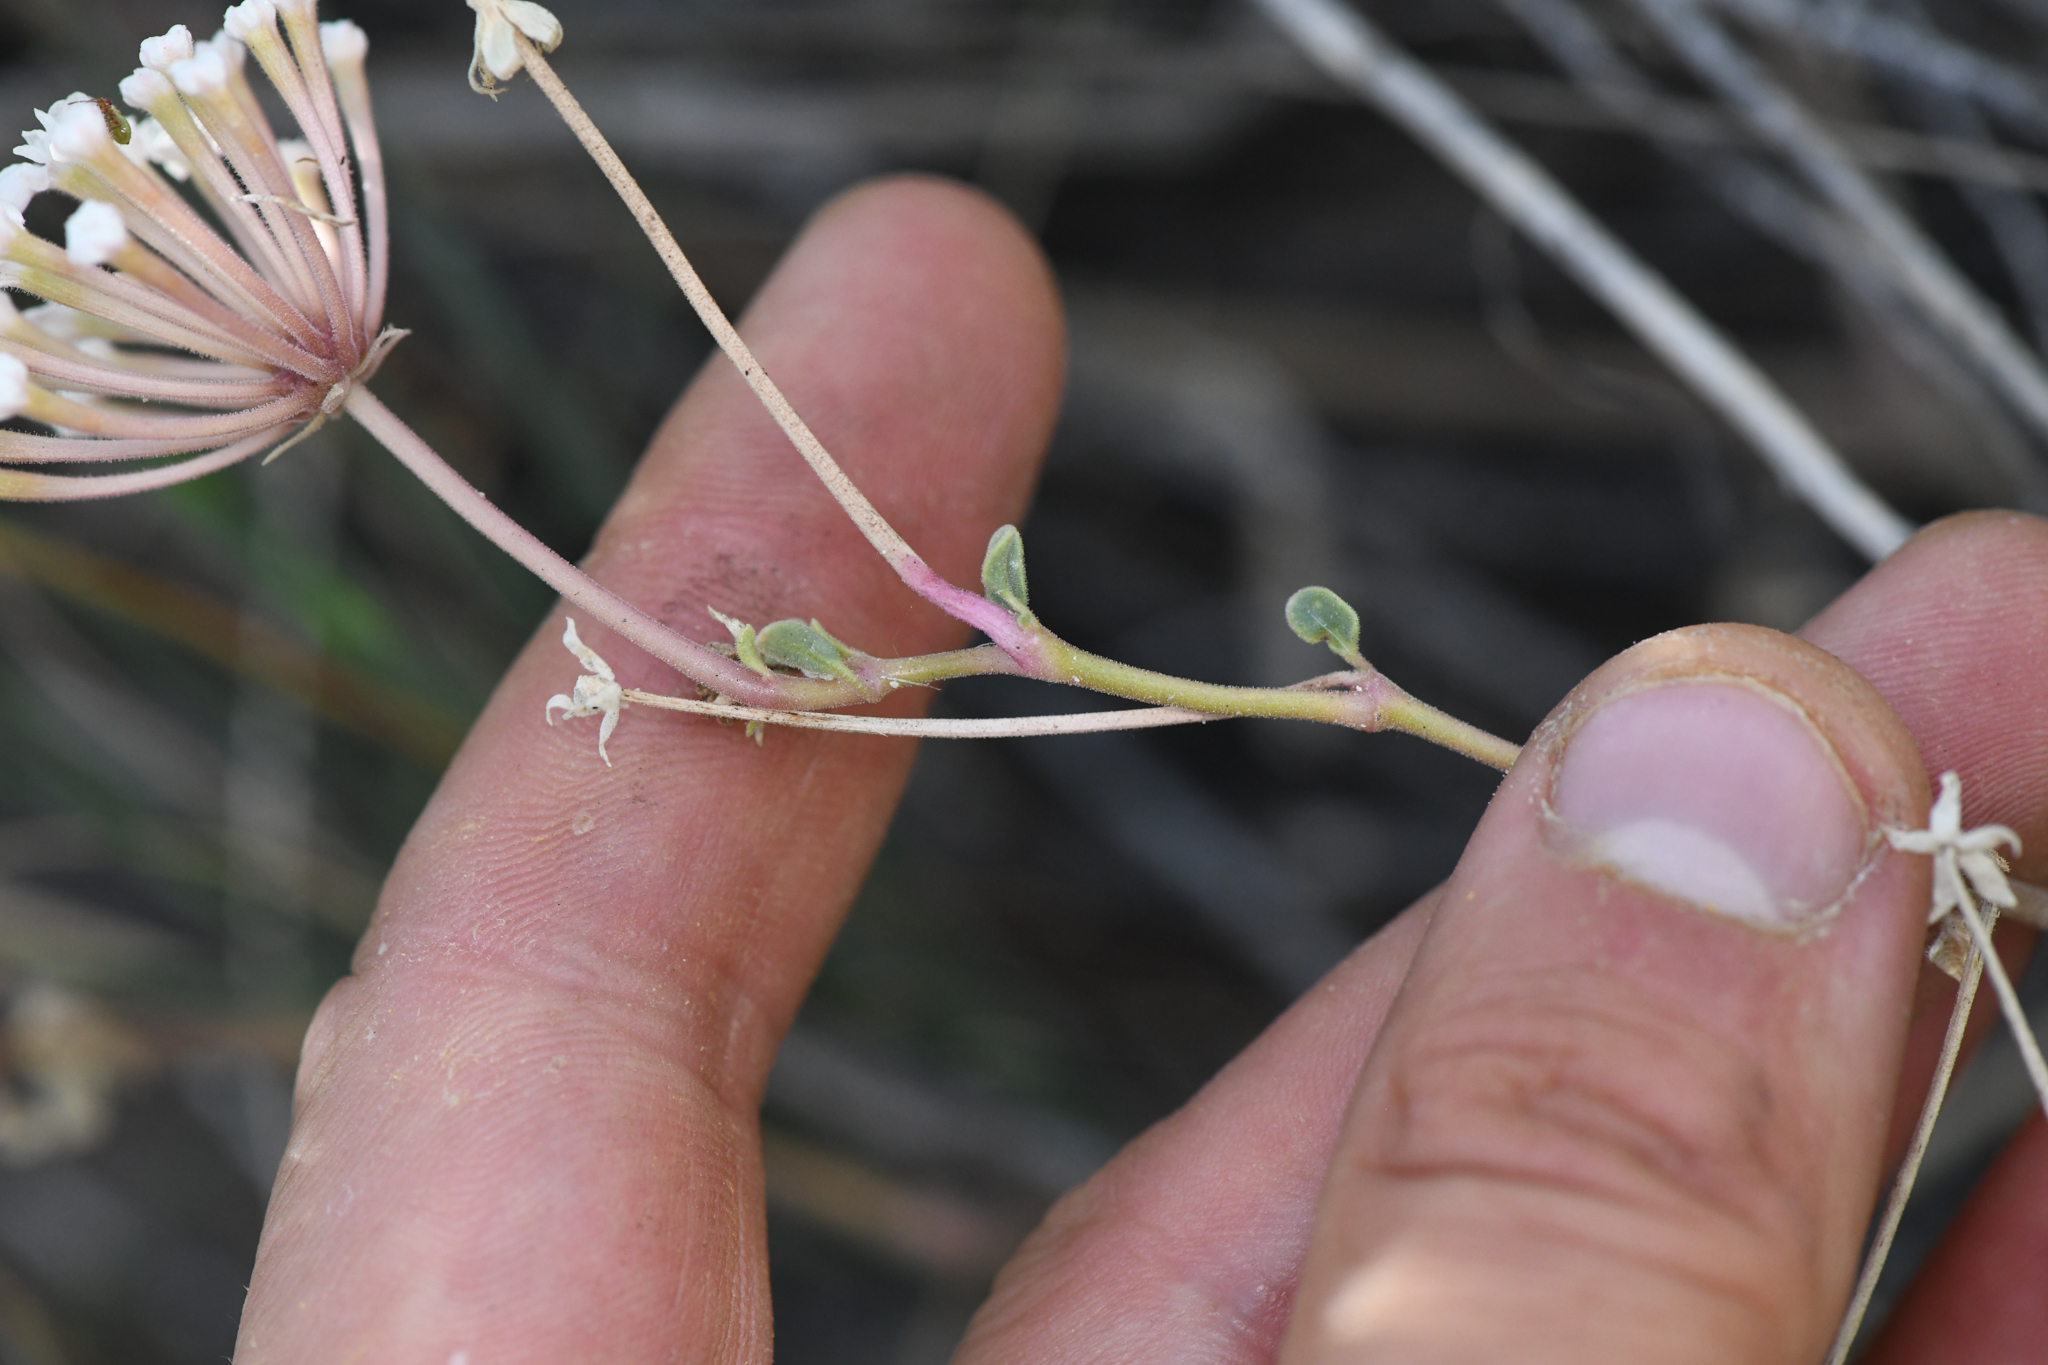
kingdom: Plantae
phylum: Tracheophyta
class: Magnoliopsida
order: Caryophyllales
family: Nyctaginaceae
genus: Abronia
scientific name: Abronia turbinata
